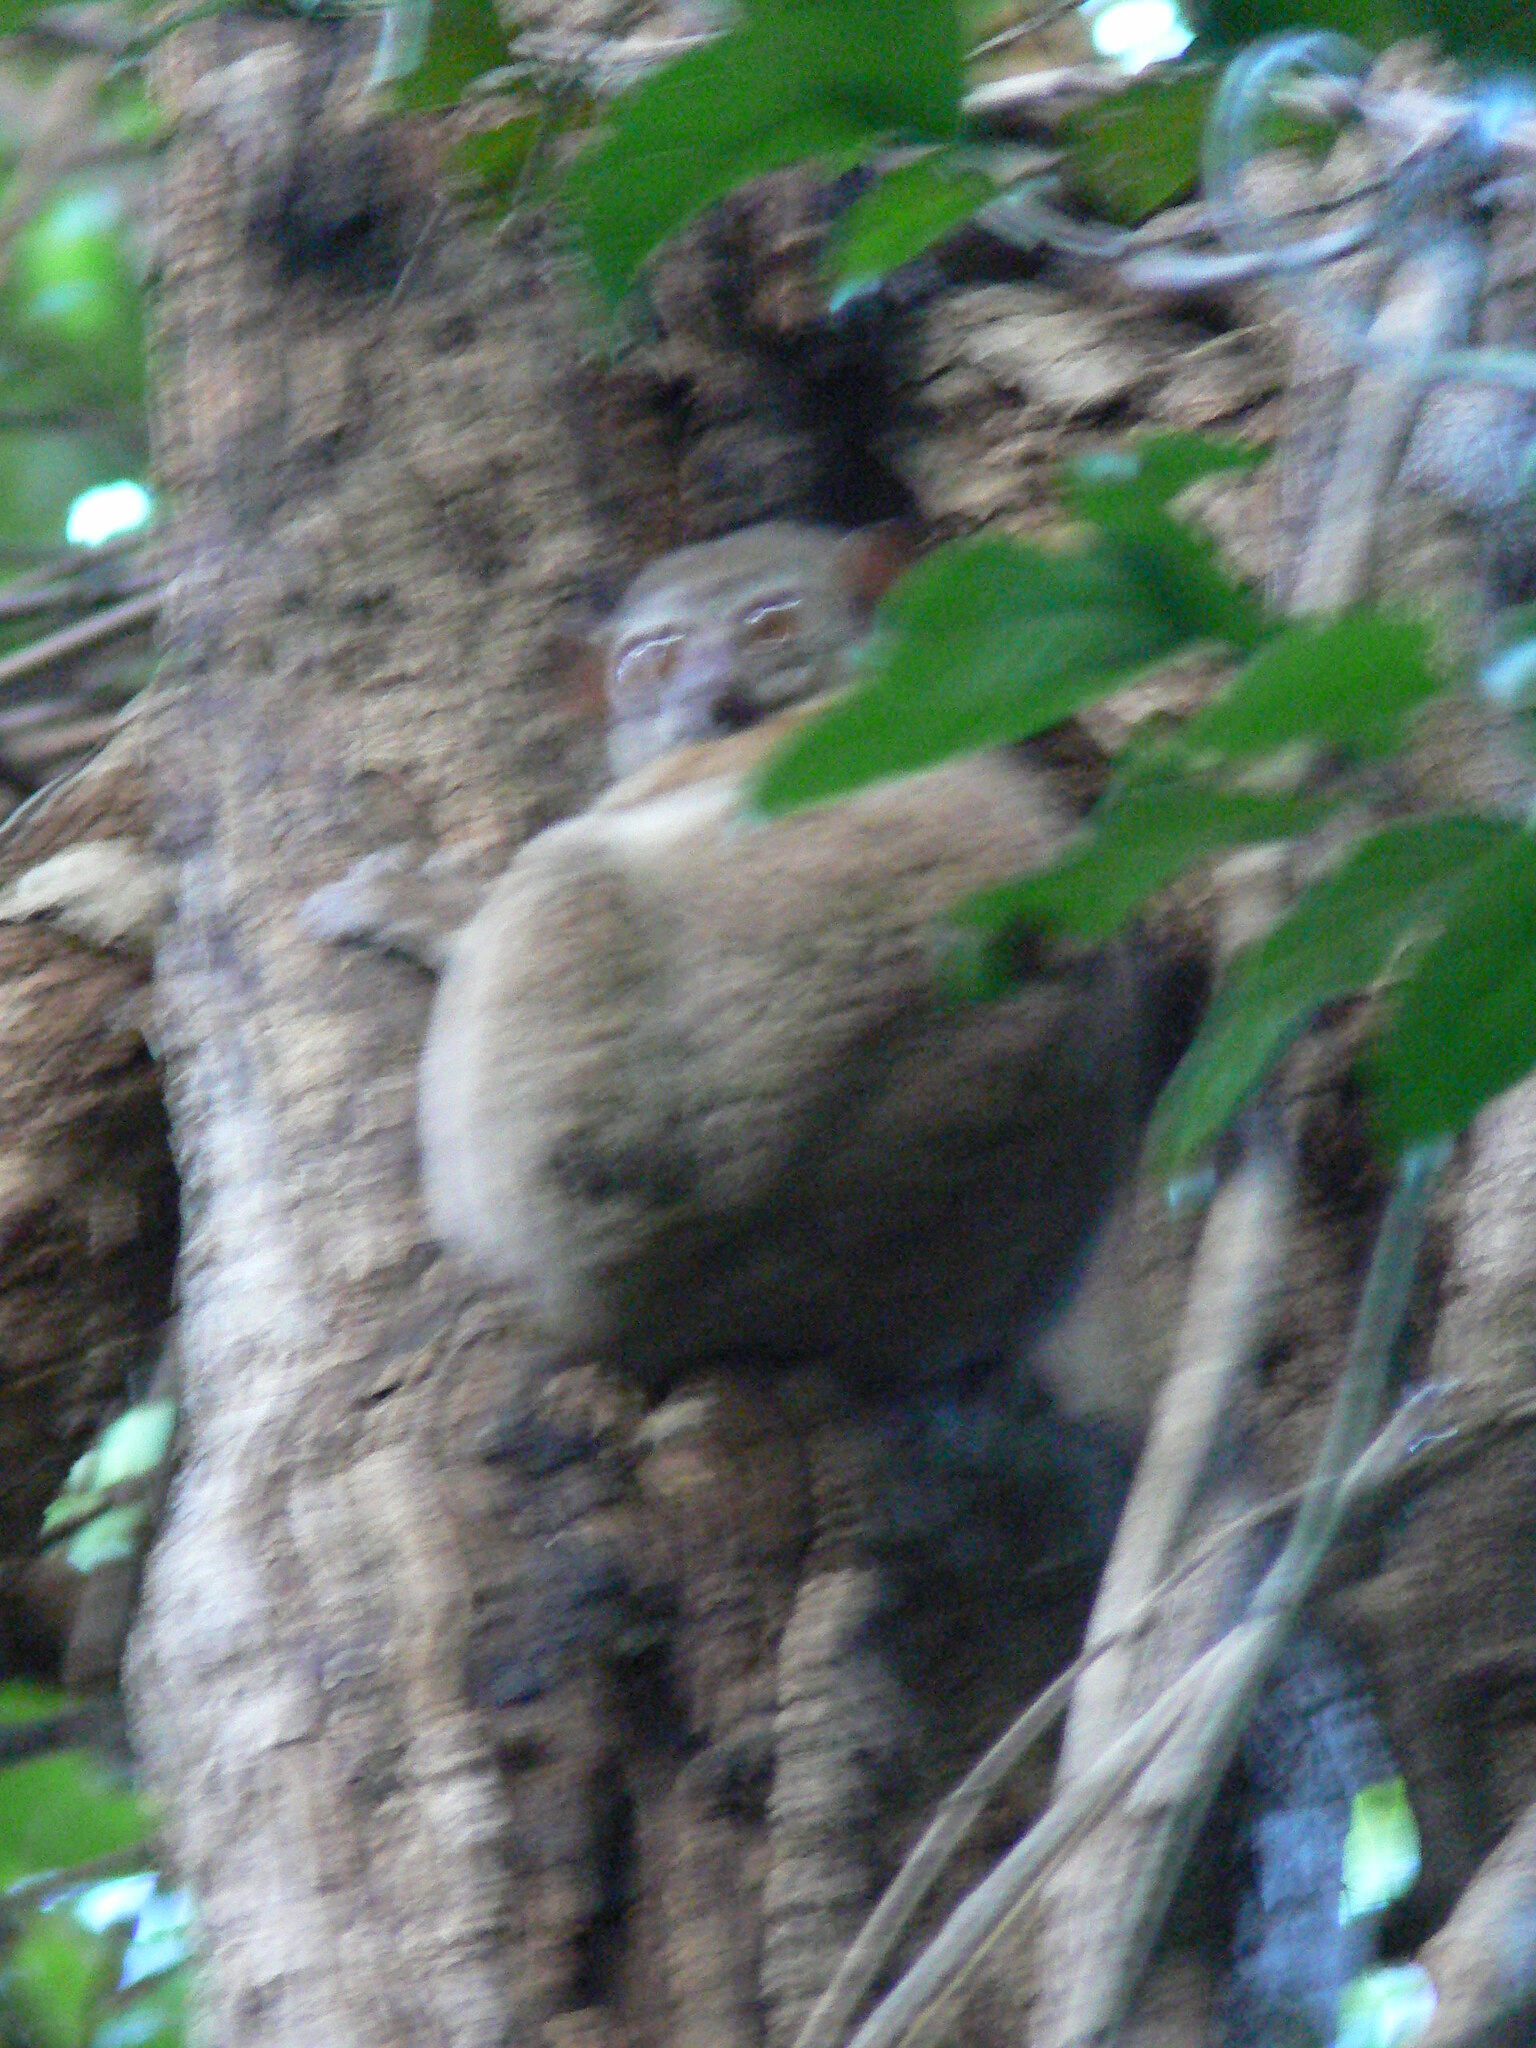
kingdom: Animalia
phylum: Chordata
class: Mammalia
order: Primates
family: Lepilemuridae
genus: Lepilemur
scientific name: Lepilemur ankaranensis
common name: Ankarana sportive lemur
